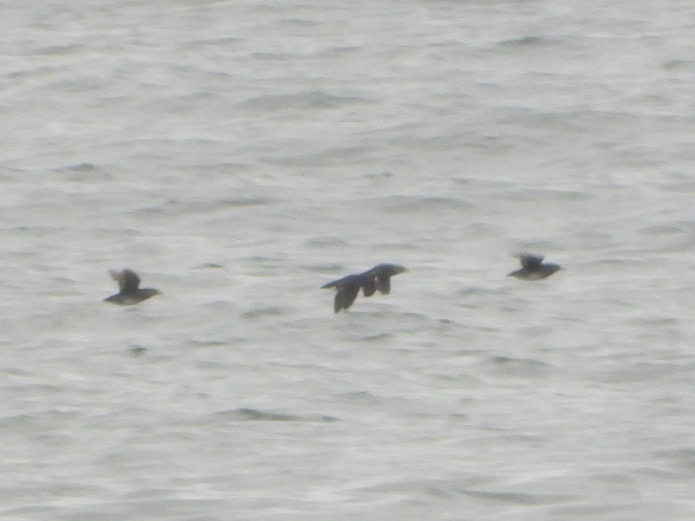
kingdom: Animalia
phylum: Chordata
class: Aves
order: Charadriiformes
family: Alcidae
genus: Cerorhinca
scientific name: Cerorhinca monocerata
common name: Rhinoceros auklet
